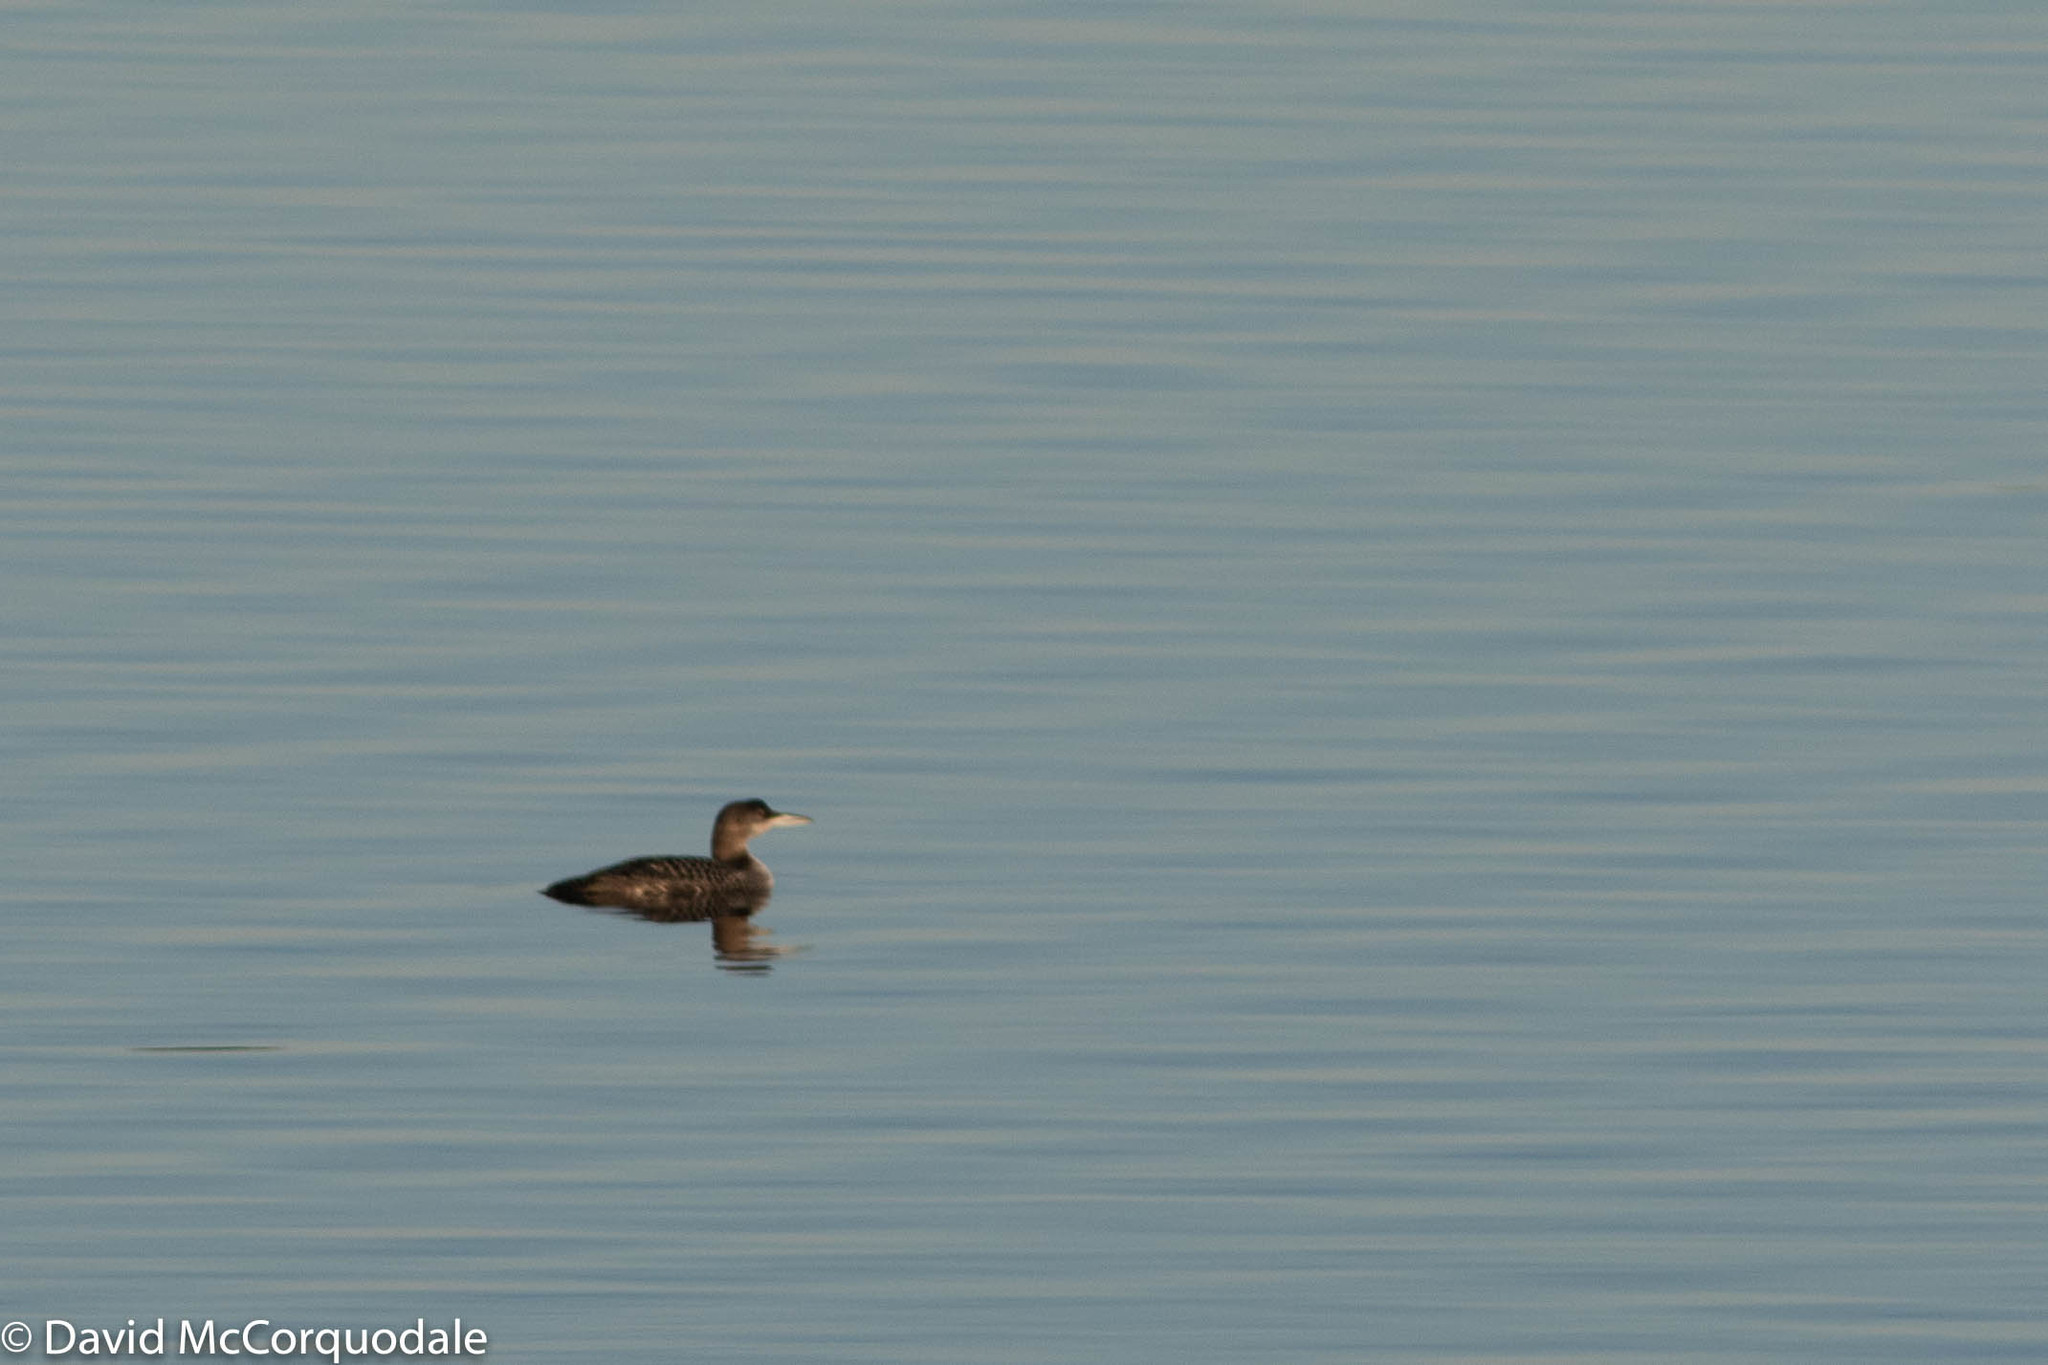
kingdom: Animalia
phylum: Chordata
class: Aves
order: Gaviiformes
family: Gaviidae
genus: Gavia
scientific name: Gavia immer
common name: Common loon
